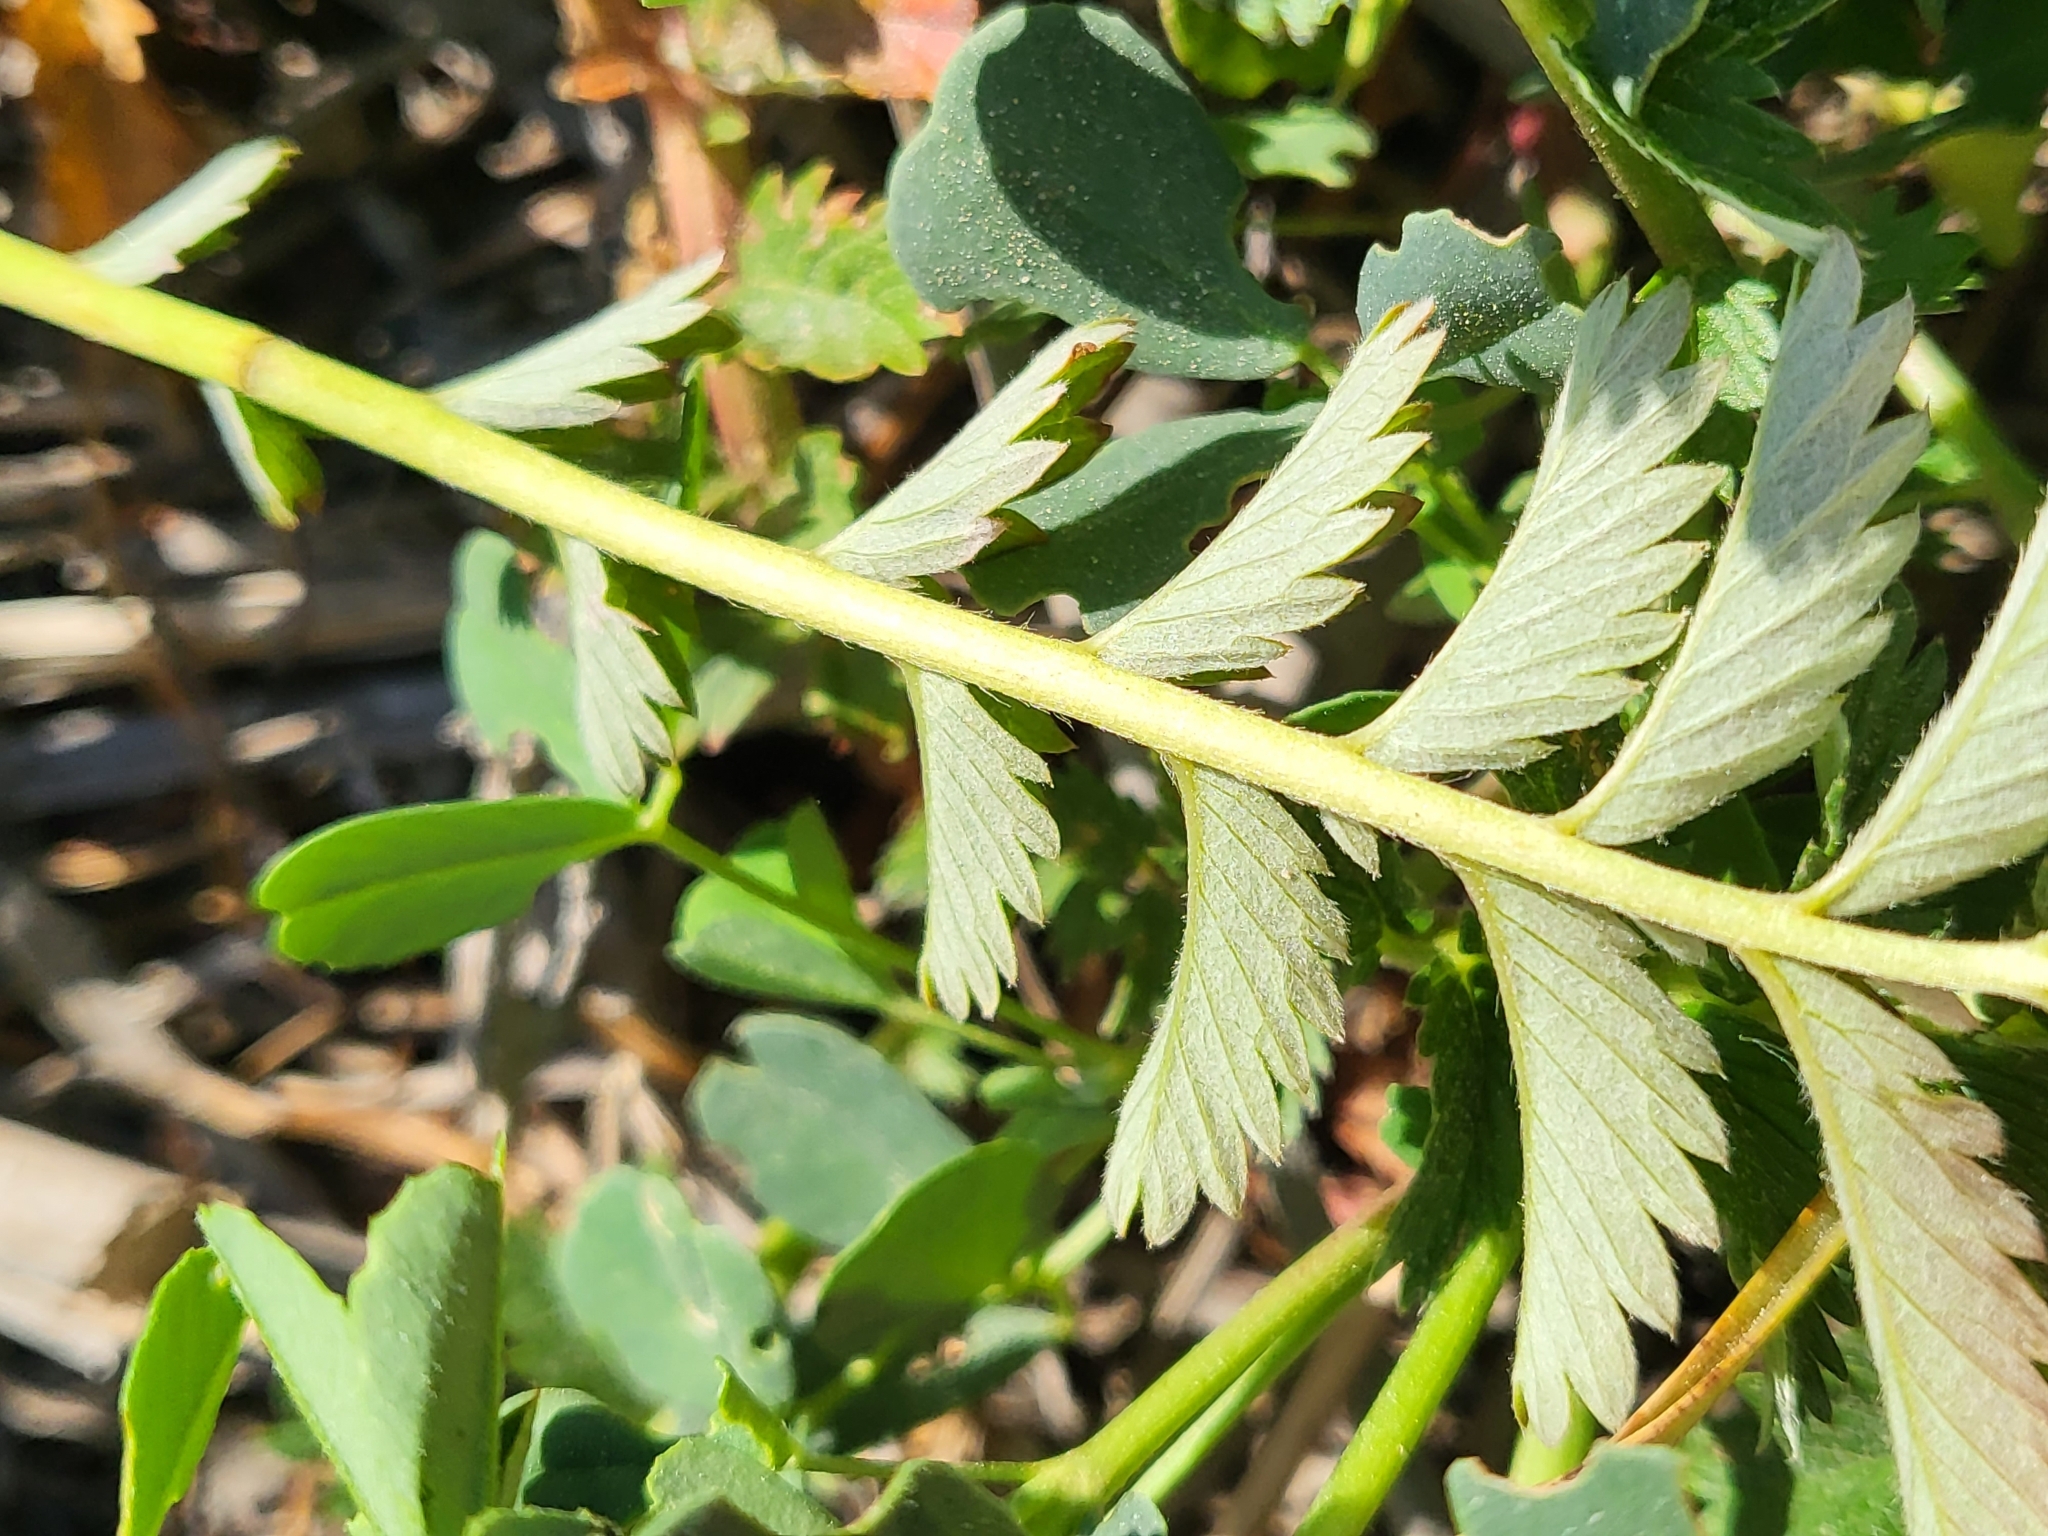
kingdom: Plantae
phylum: Tracheophyta
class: Magnoliopsida
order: Rosales
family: Rosaceae
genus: Argentina
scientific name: Argentina anserina
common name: Common silverweed
